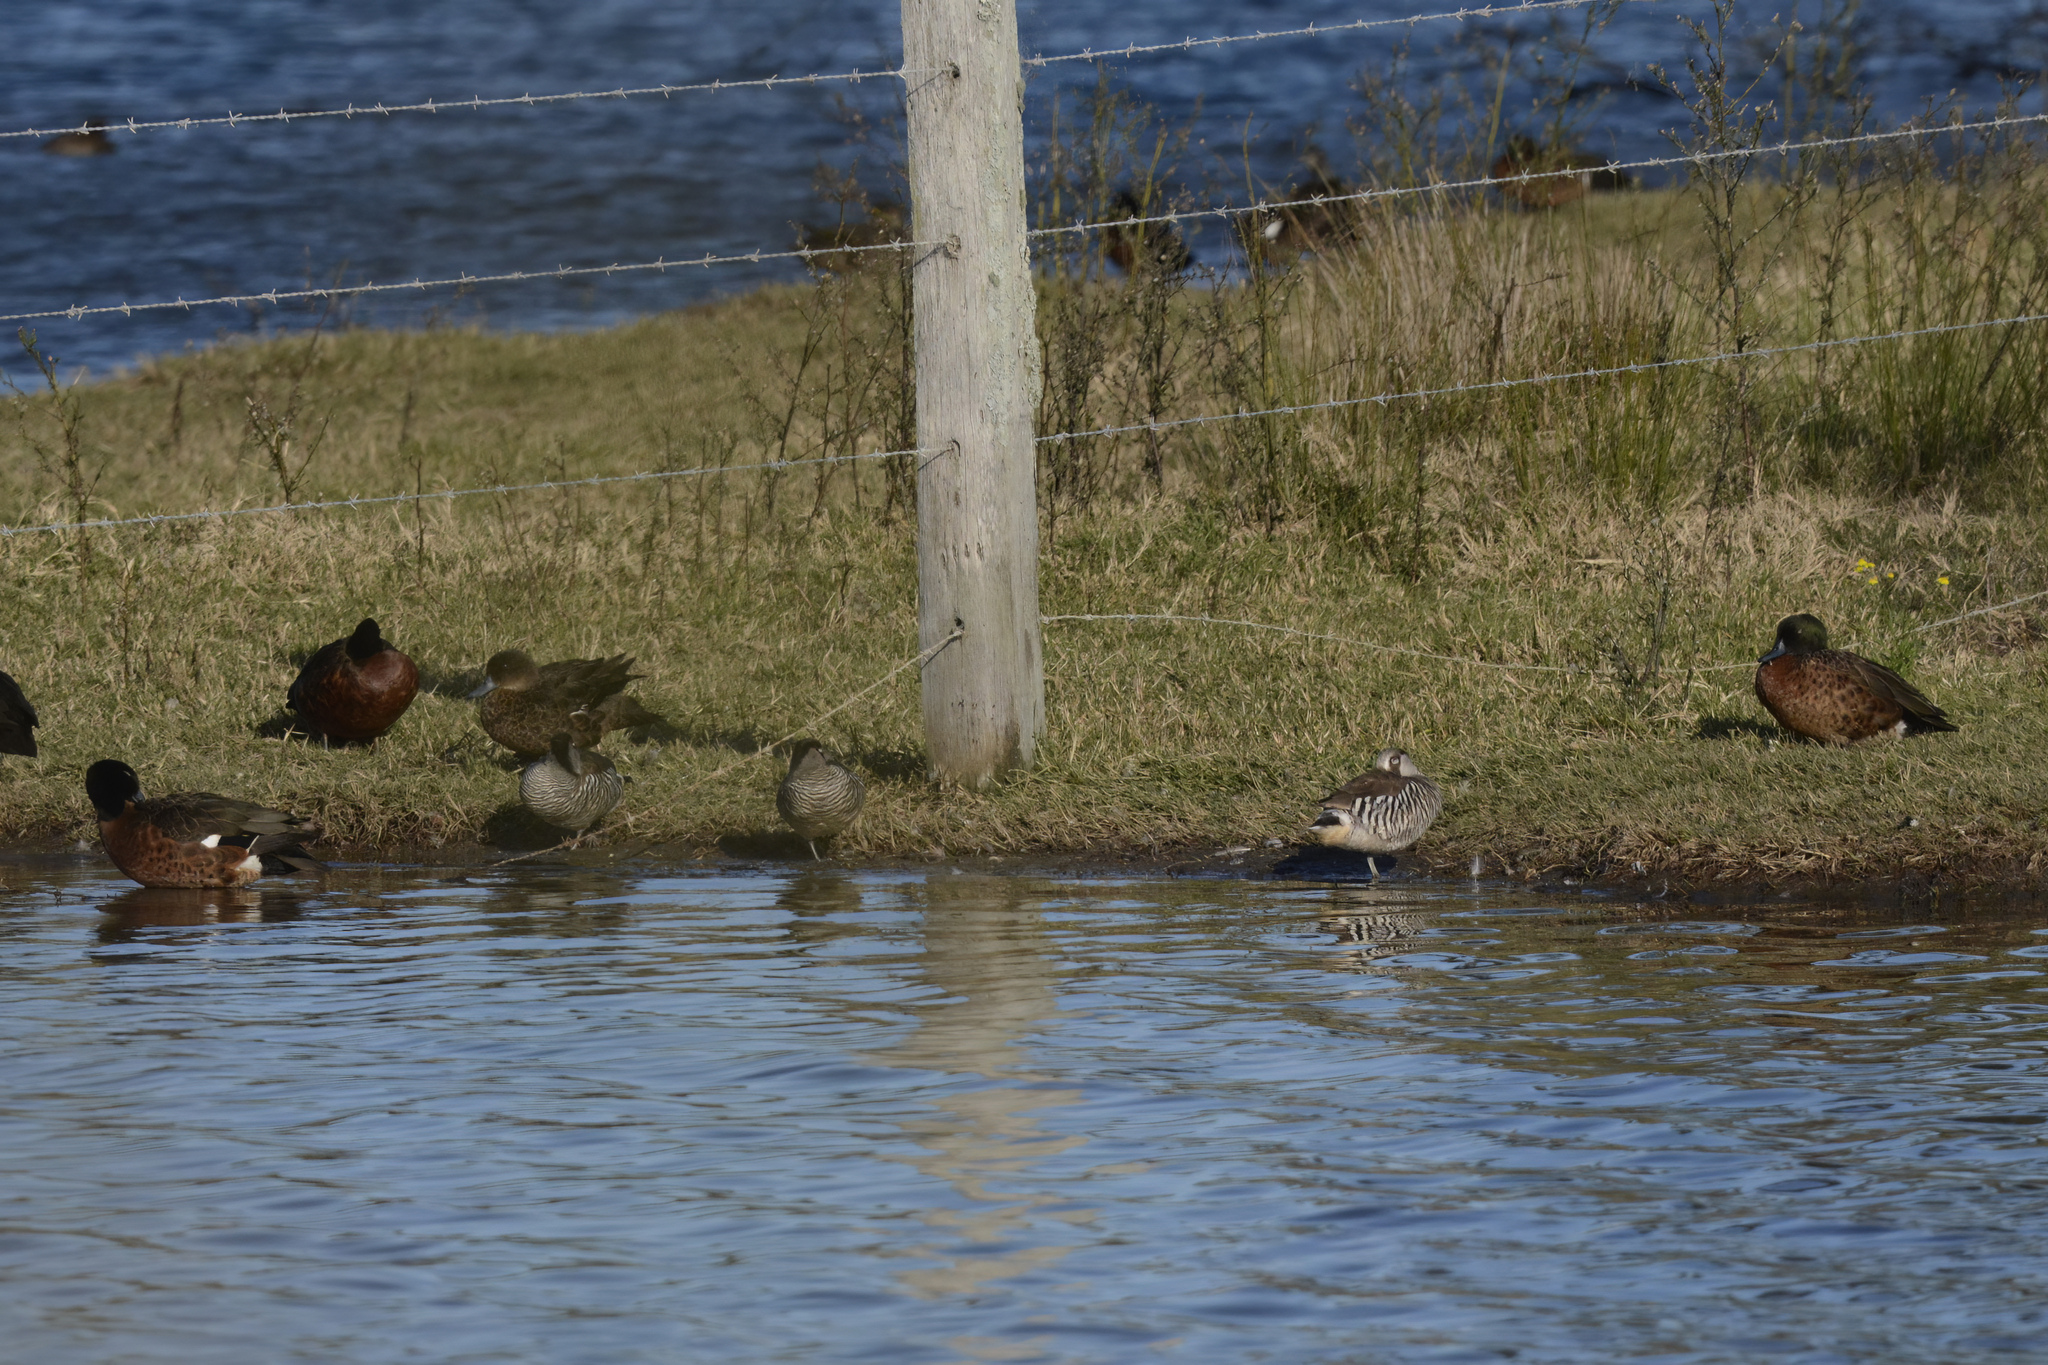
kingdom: Animalia
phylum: Chordata
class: Aves
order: Anseriformes
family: Anatidae
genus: Malacorhynchus
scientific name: Malacorhynchus membranaceus
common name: Pink-eared duck
